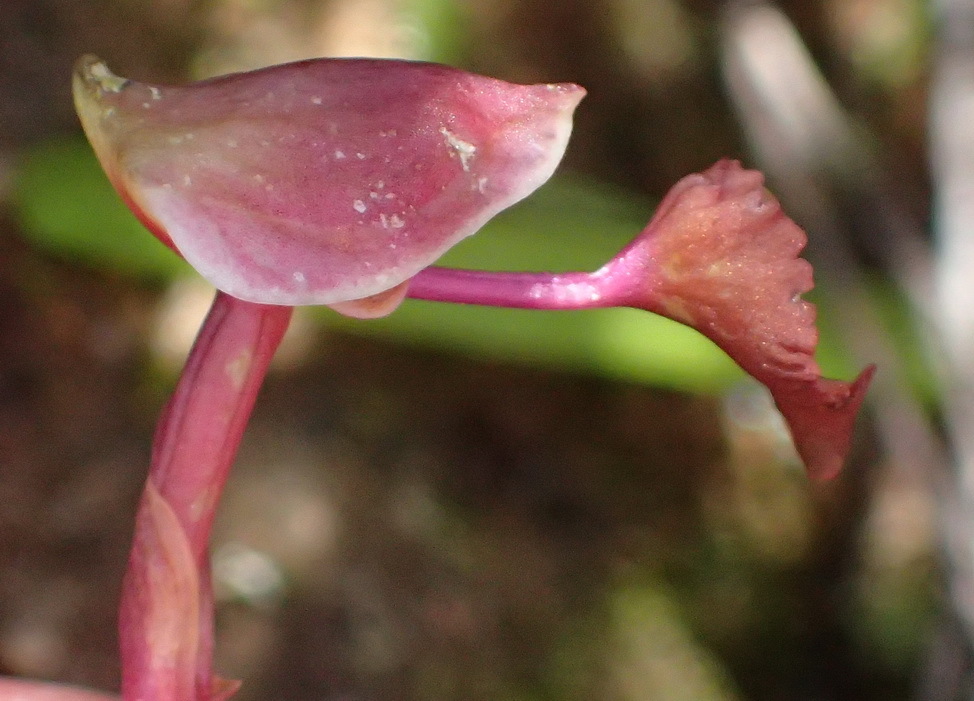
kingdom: Plantae
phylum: Tracheophyta
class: Liliopsida
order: Asparagales
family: Orchidaceae
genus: Disa
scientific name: Disa spathulata
